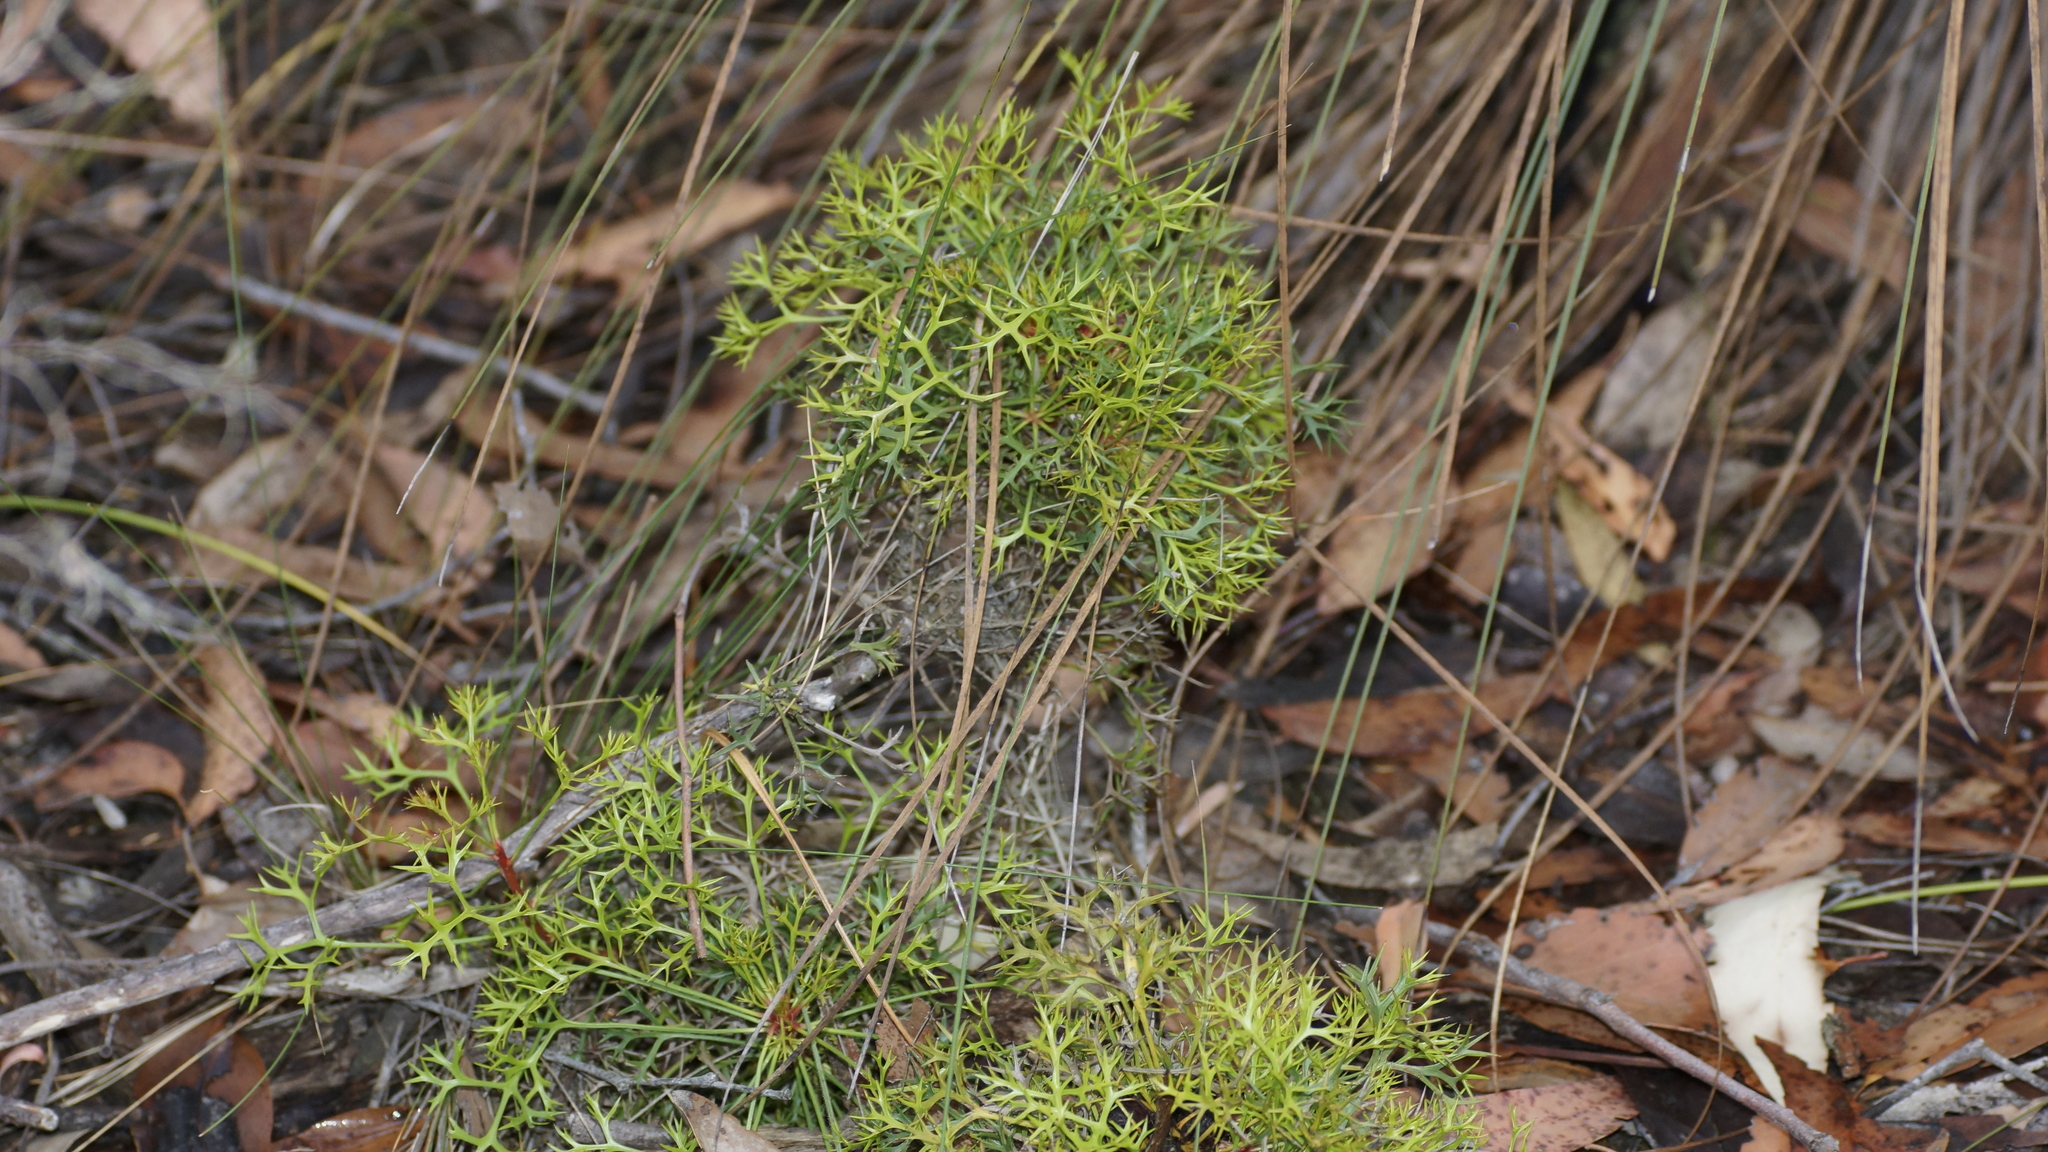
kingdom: Plantae
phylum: Tracheophyta
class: Magnoliopsida
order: Proteales
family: Proteaceae
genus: Isopogon
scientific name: Isopogon ceratophyllus
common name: Horny cone-bush
